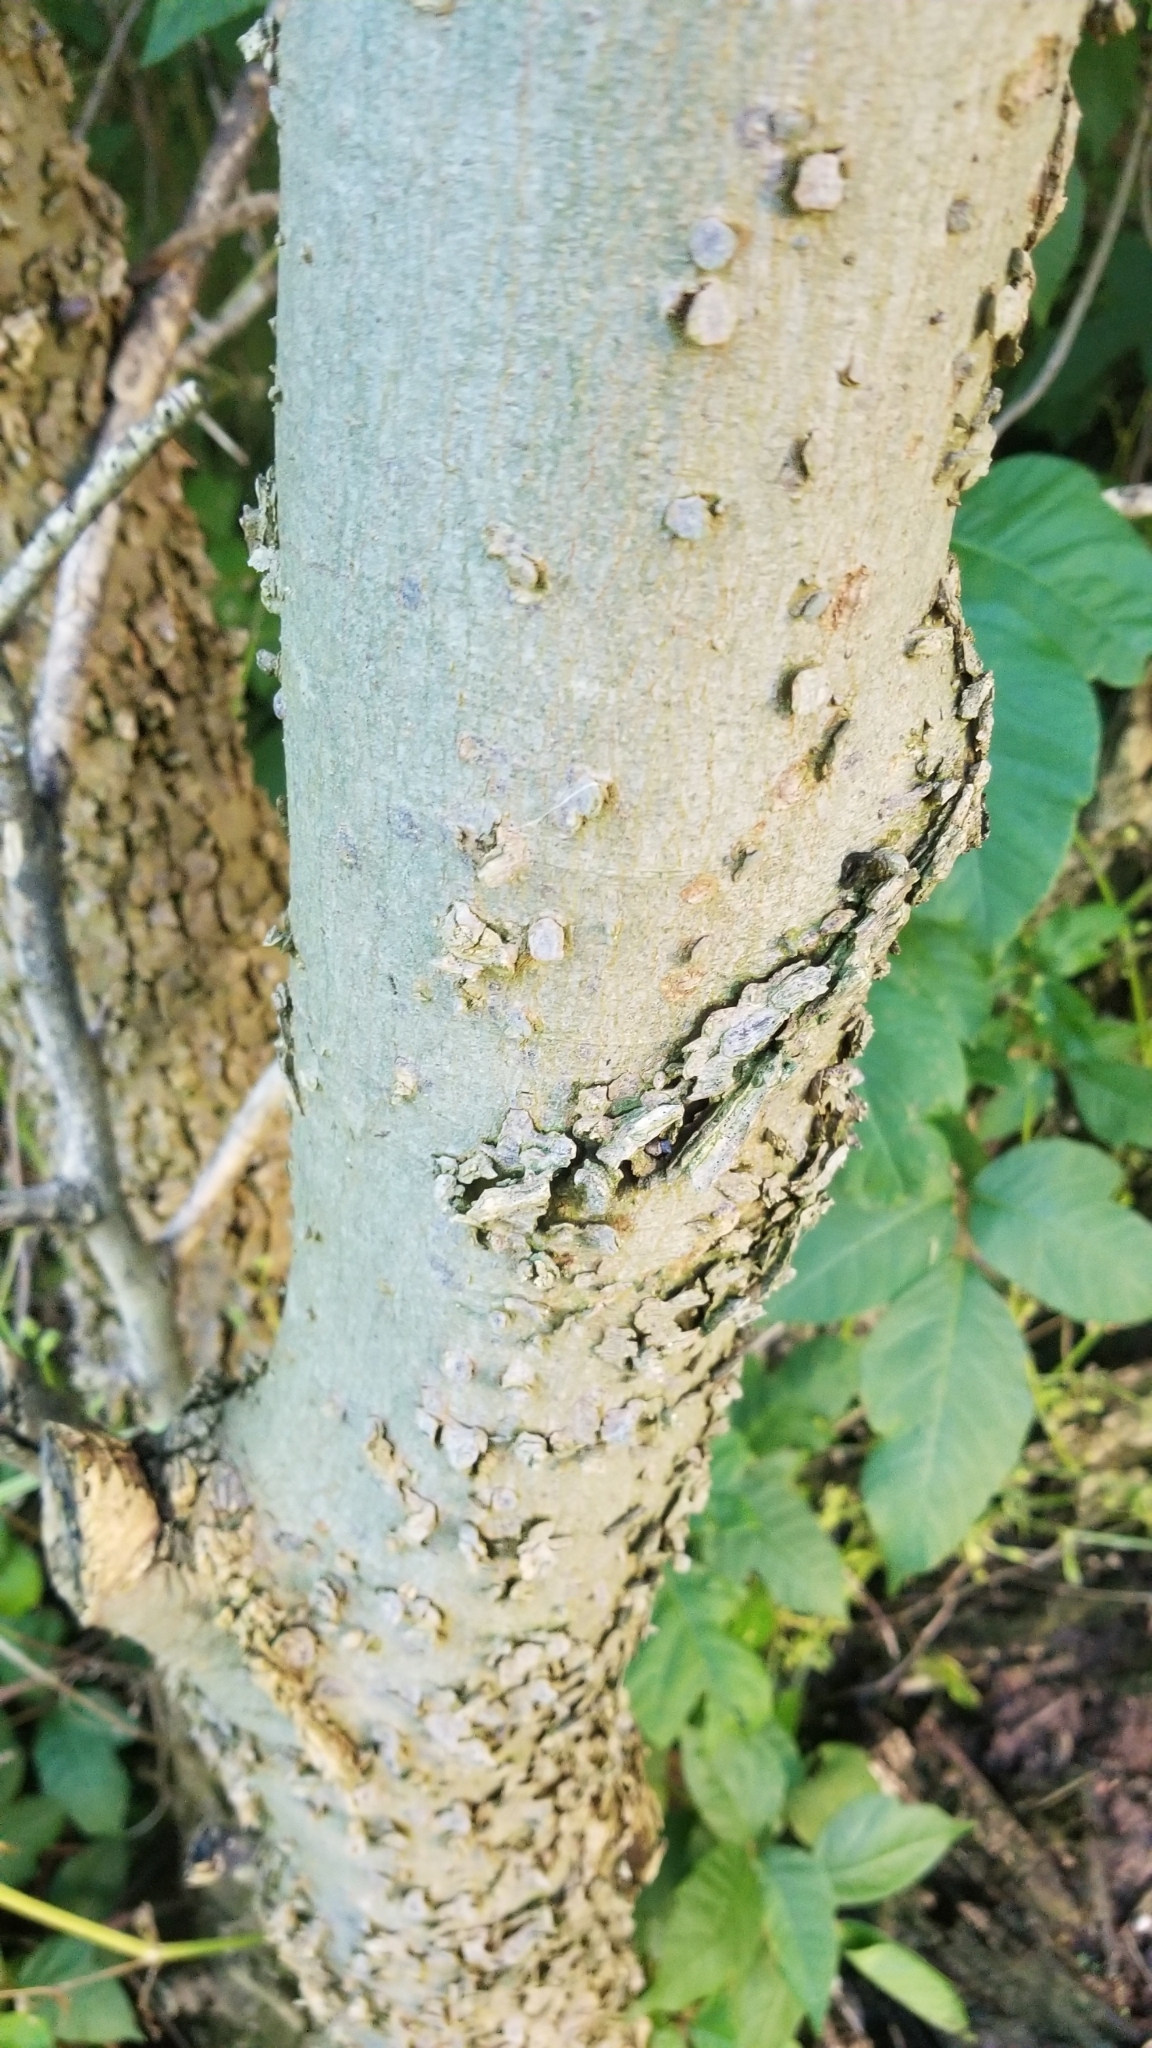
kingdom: Plantae
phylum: Tracheophyta
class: Magnoliopsida
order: Rosales
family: Cannabaceae
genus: Celtis
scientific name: Celtis laevigata
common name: Sugarberry
